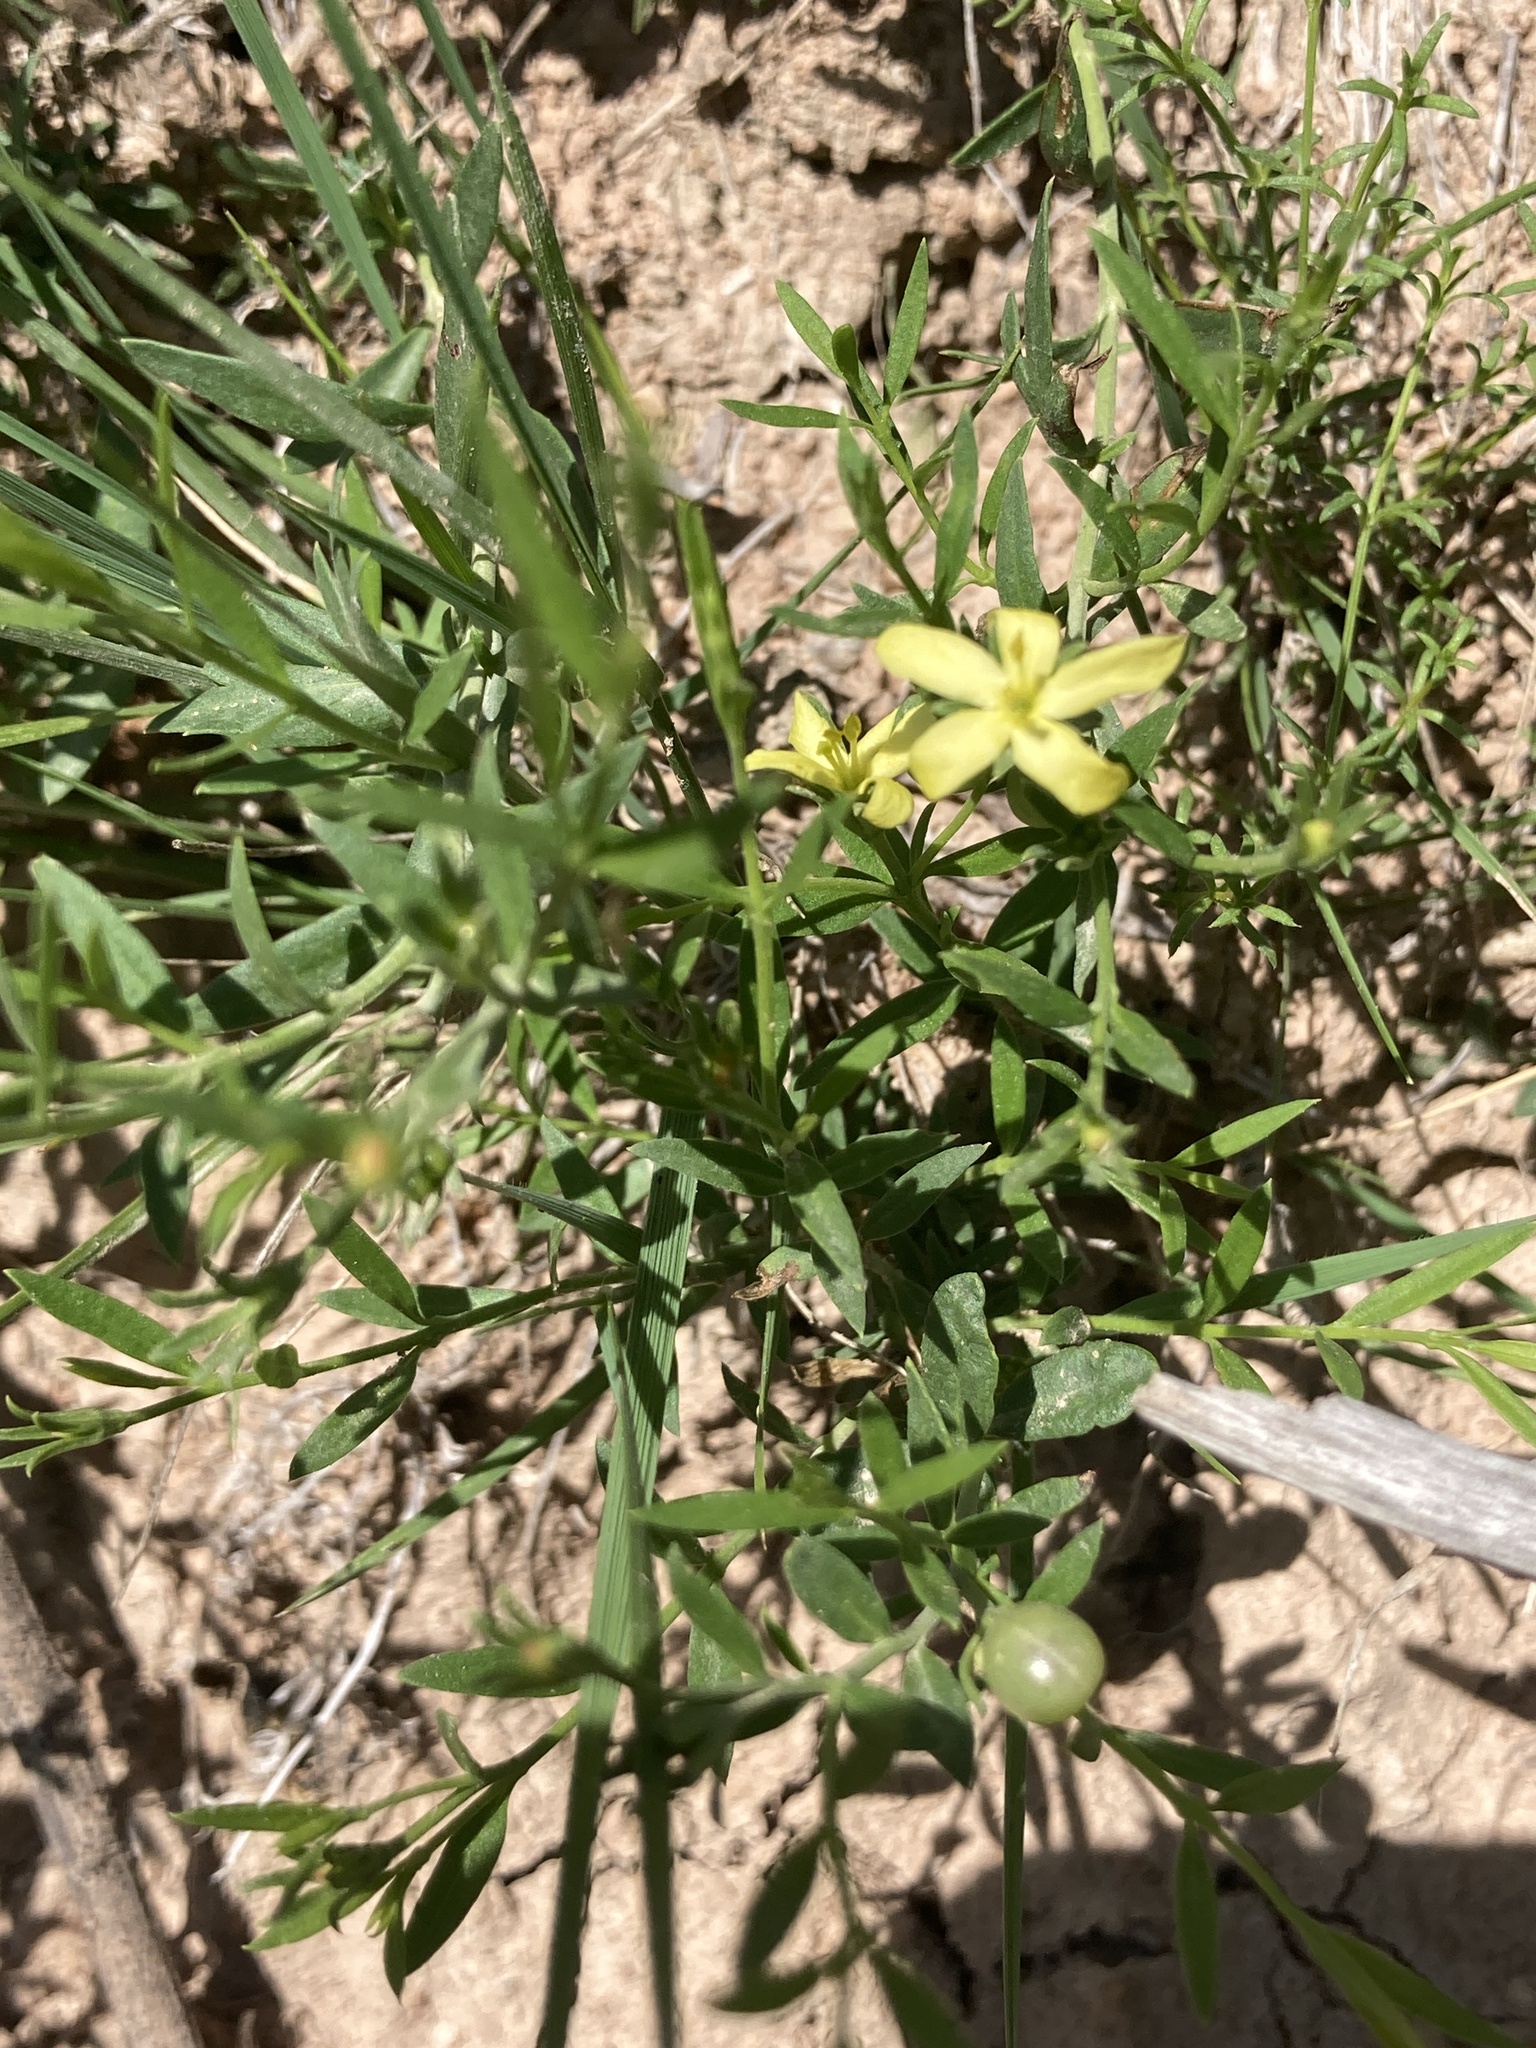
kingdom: Plantae
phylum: Tracheophyta
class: Magnoliopsida
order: Lamiales
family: Oleaceae
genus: Menodora
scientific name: Menodora integrifolia
